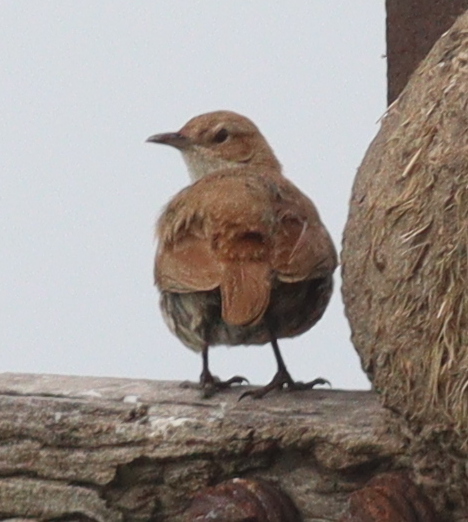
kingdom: Animalia
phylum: Chordata
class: Aves
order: Passeriformes
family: Furnariidae
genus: Furnarius
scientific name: Furnarius rufus
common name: Rufous hornero
